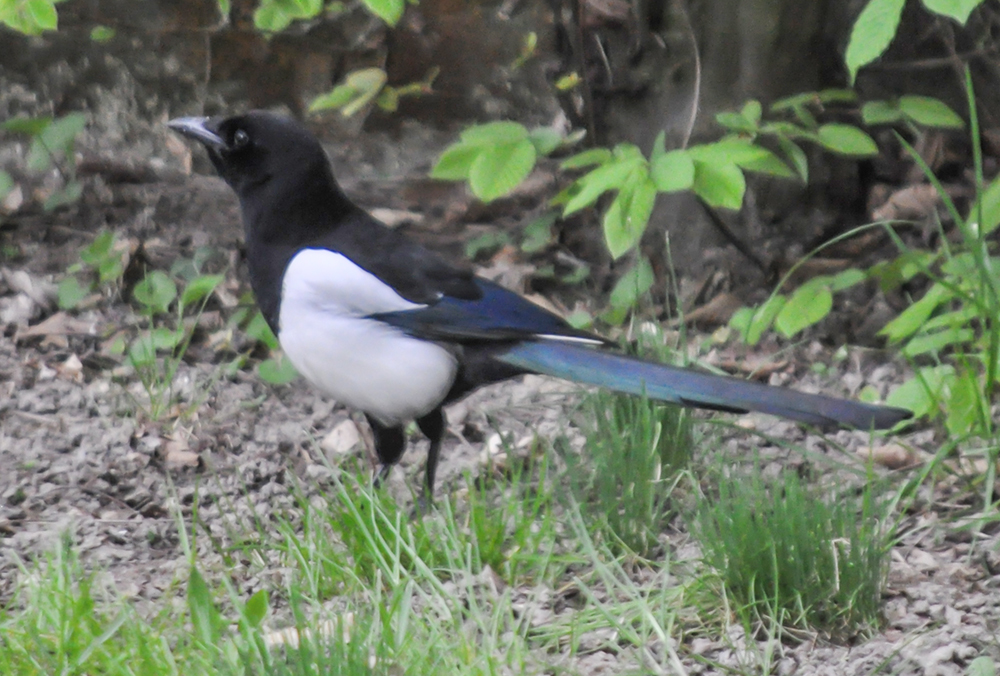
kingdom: Animalia
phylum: Chordata
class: Aves
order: Passeriformes
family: Corvidae
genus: Pica
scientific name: Pica pica
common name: Eurasian magpie
